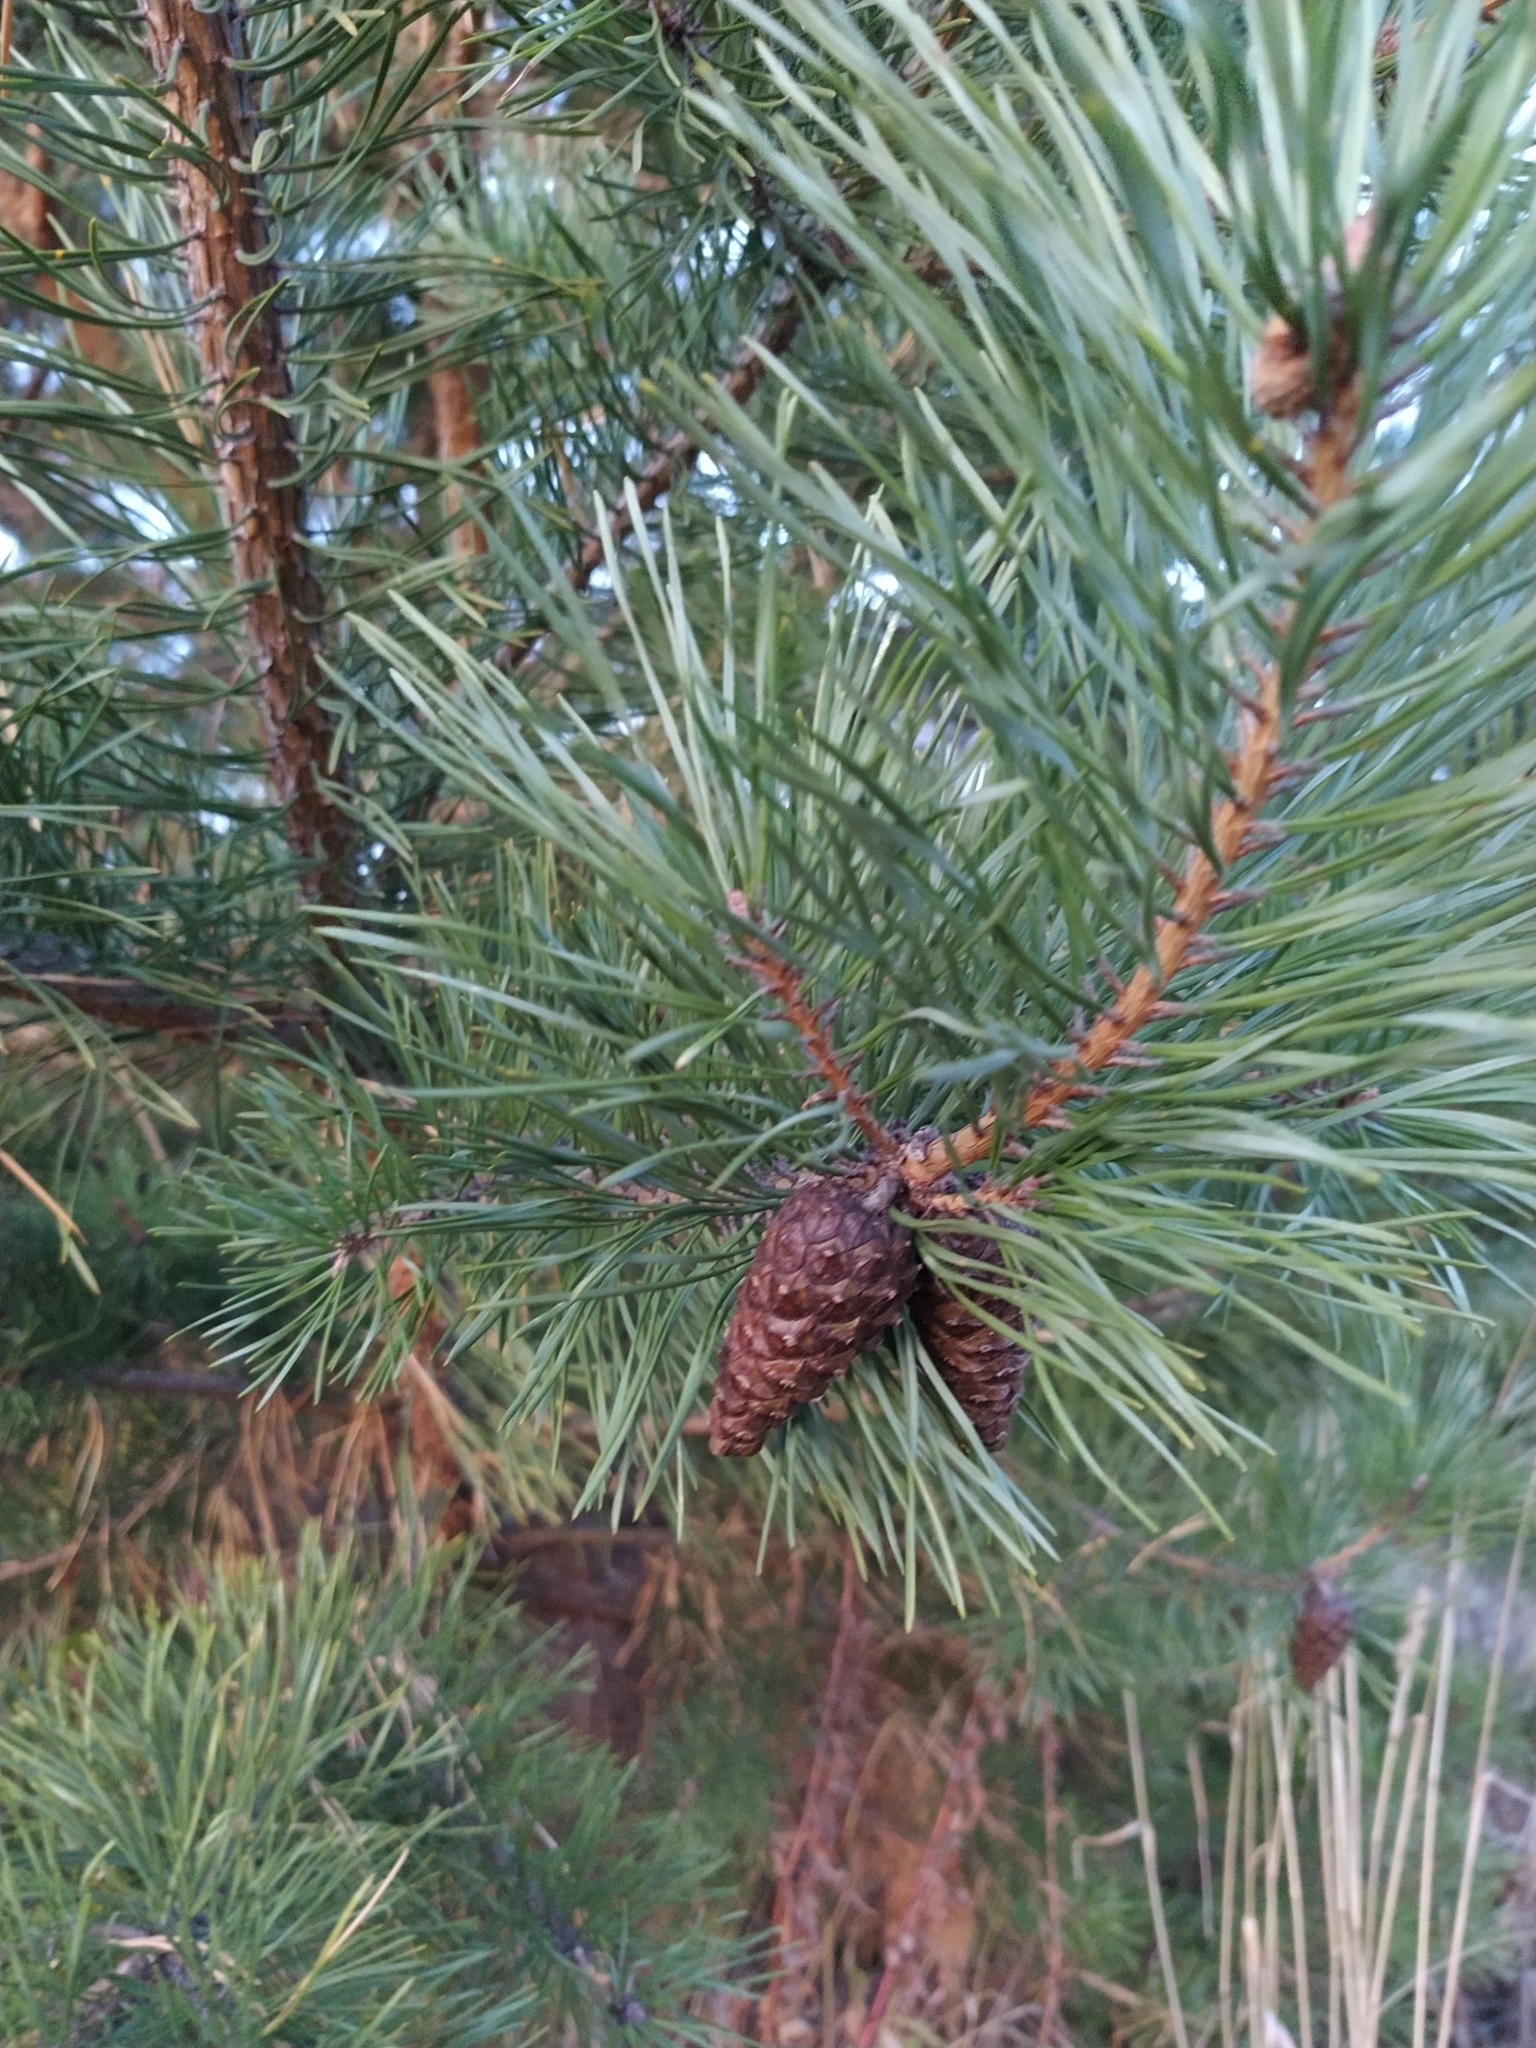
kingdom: Plantae
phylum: Tracheophyta
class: Pinopsida
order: Pinales
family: Pinaceae
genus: Pinus
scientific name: Pinus sylvestris
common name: Scots pine
